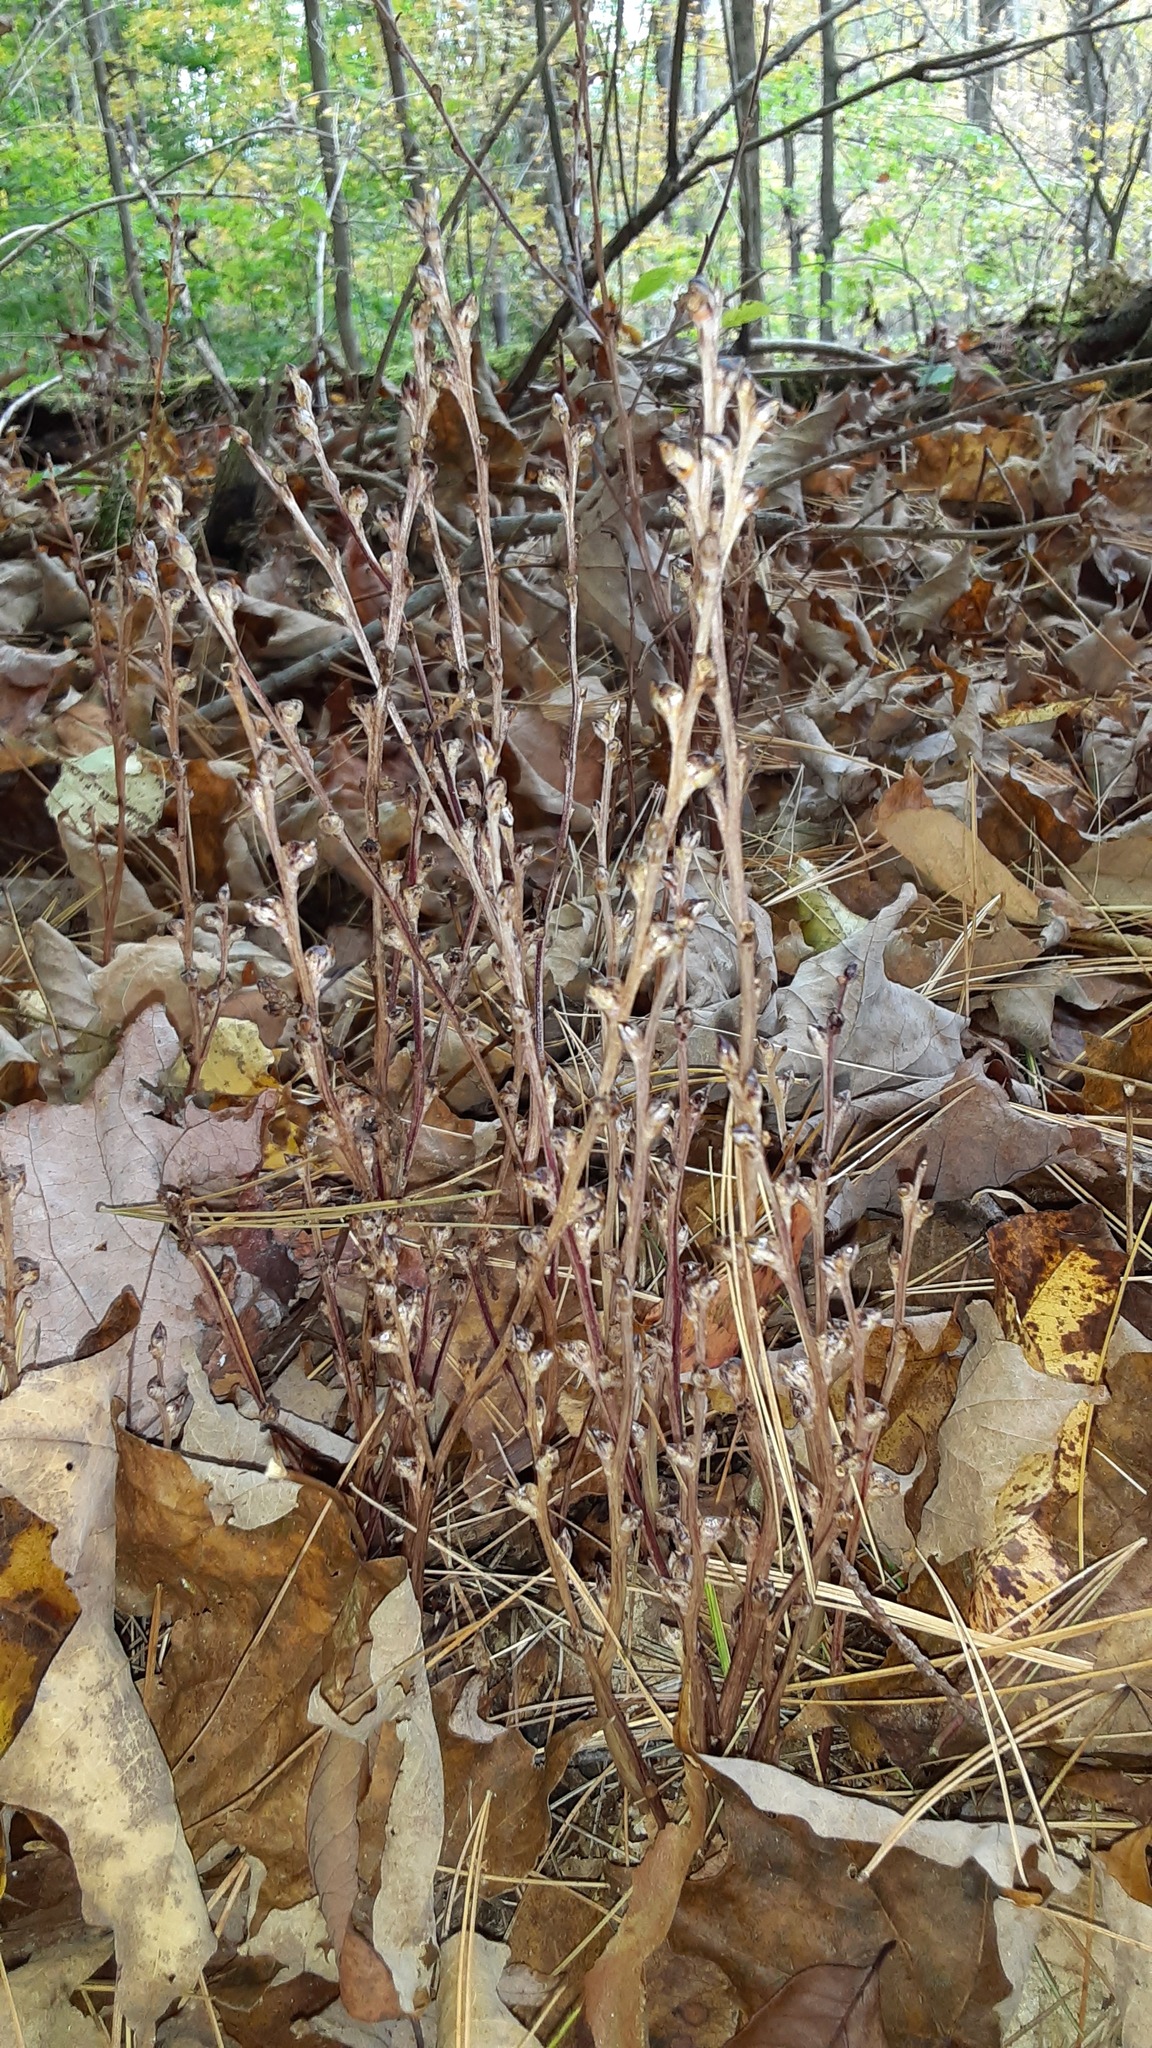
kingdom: Plantae
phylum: Tracheophyta
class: Magnoliopsida
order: Lamiales
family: Orobanchaceae
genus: Epifagus
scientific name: Epifagus virginiana
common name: Beechdrops
